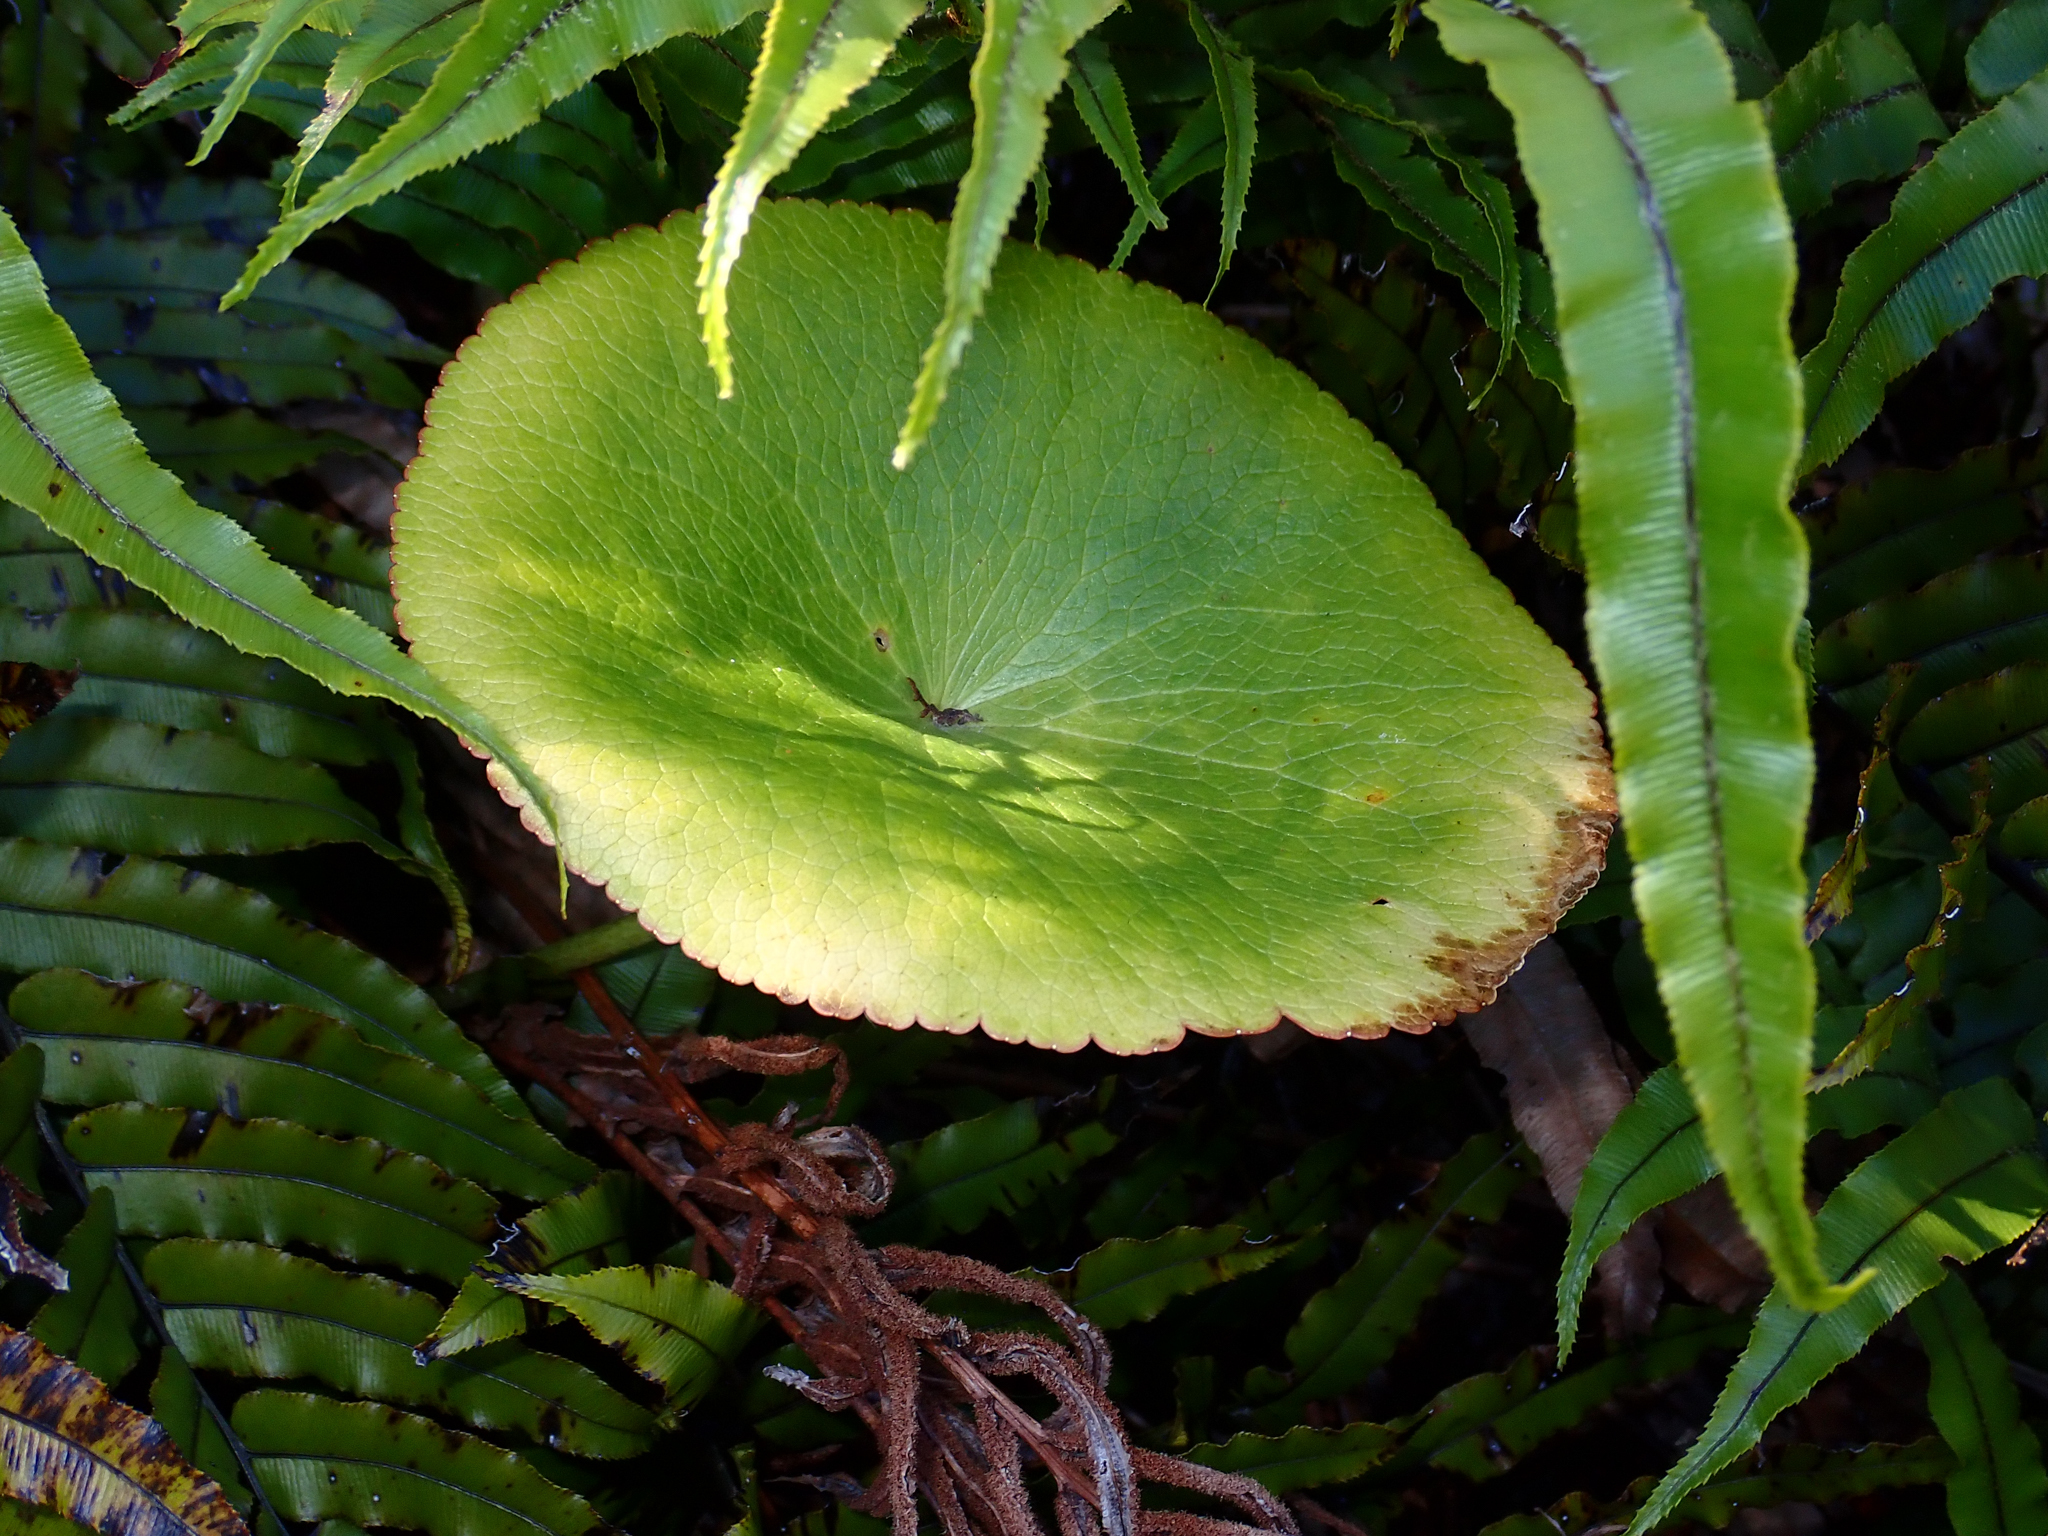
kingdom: Plantae
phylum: Tracheophyta
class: Magnoliopsida
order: Ranunculales
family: Ranunculaceae
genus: Ranunculus
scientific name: Ranunculus lyallii
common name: Mountain-lily
